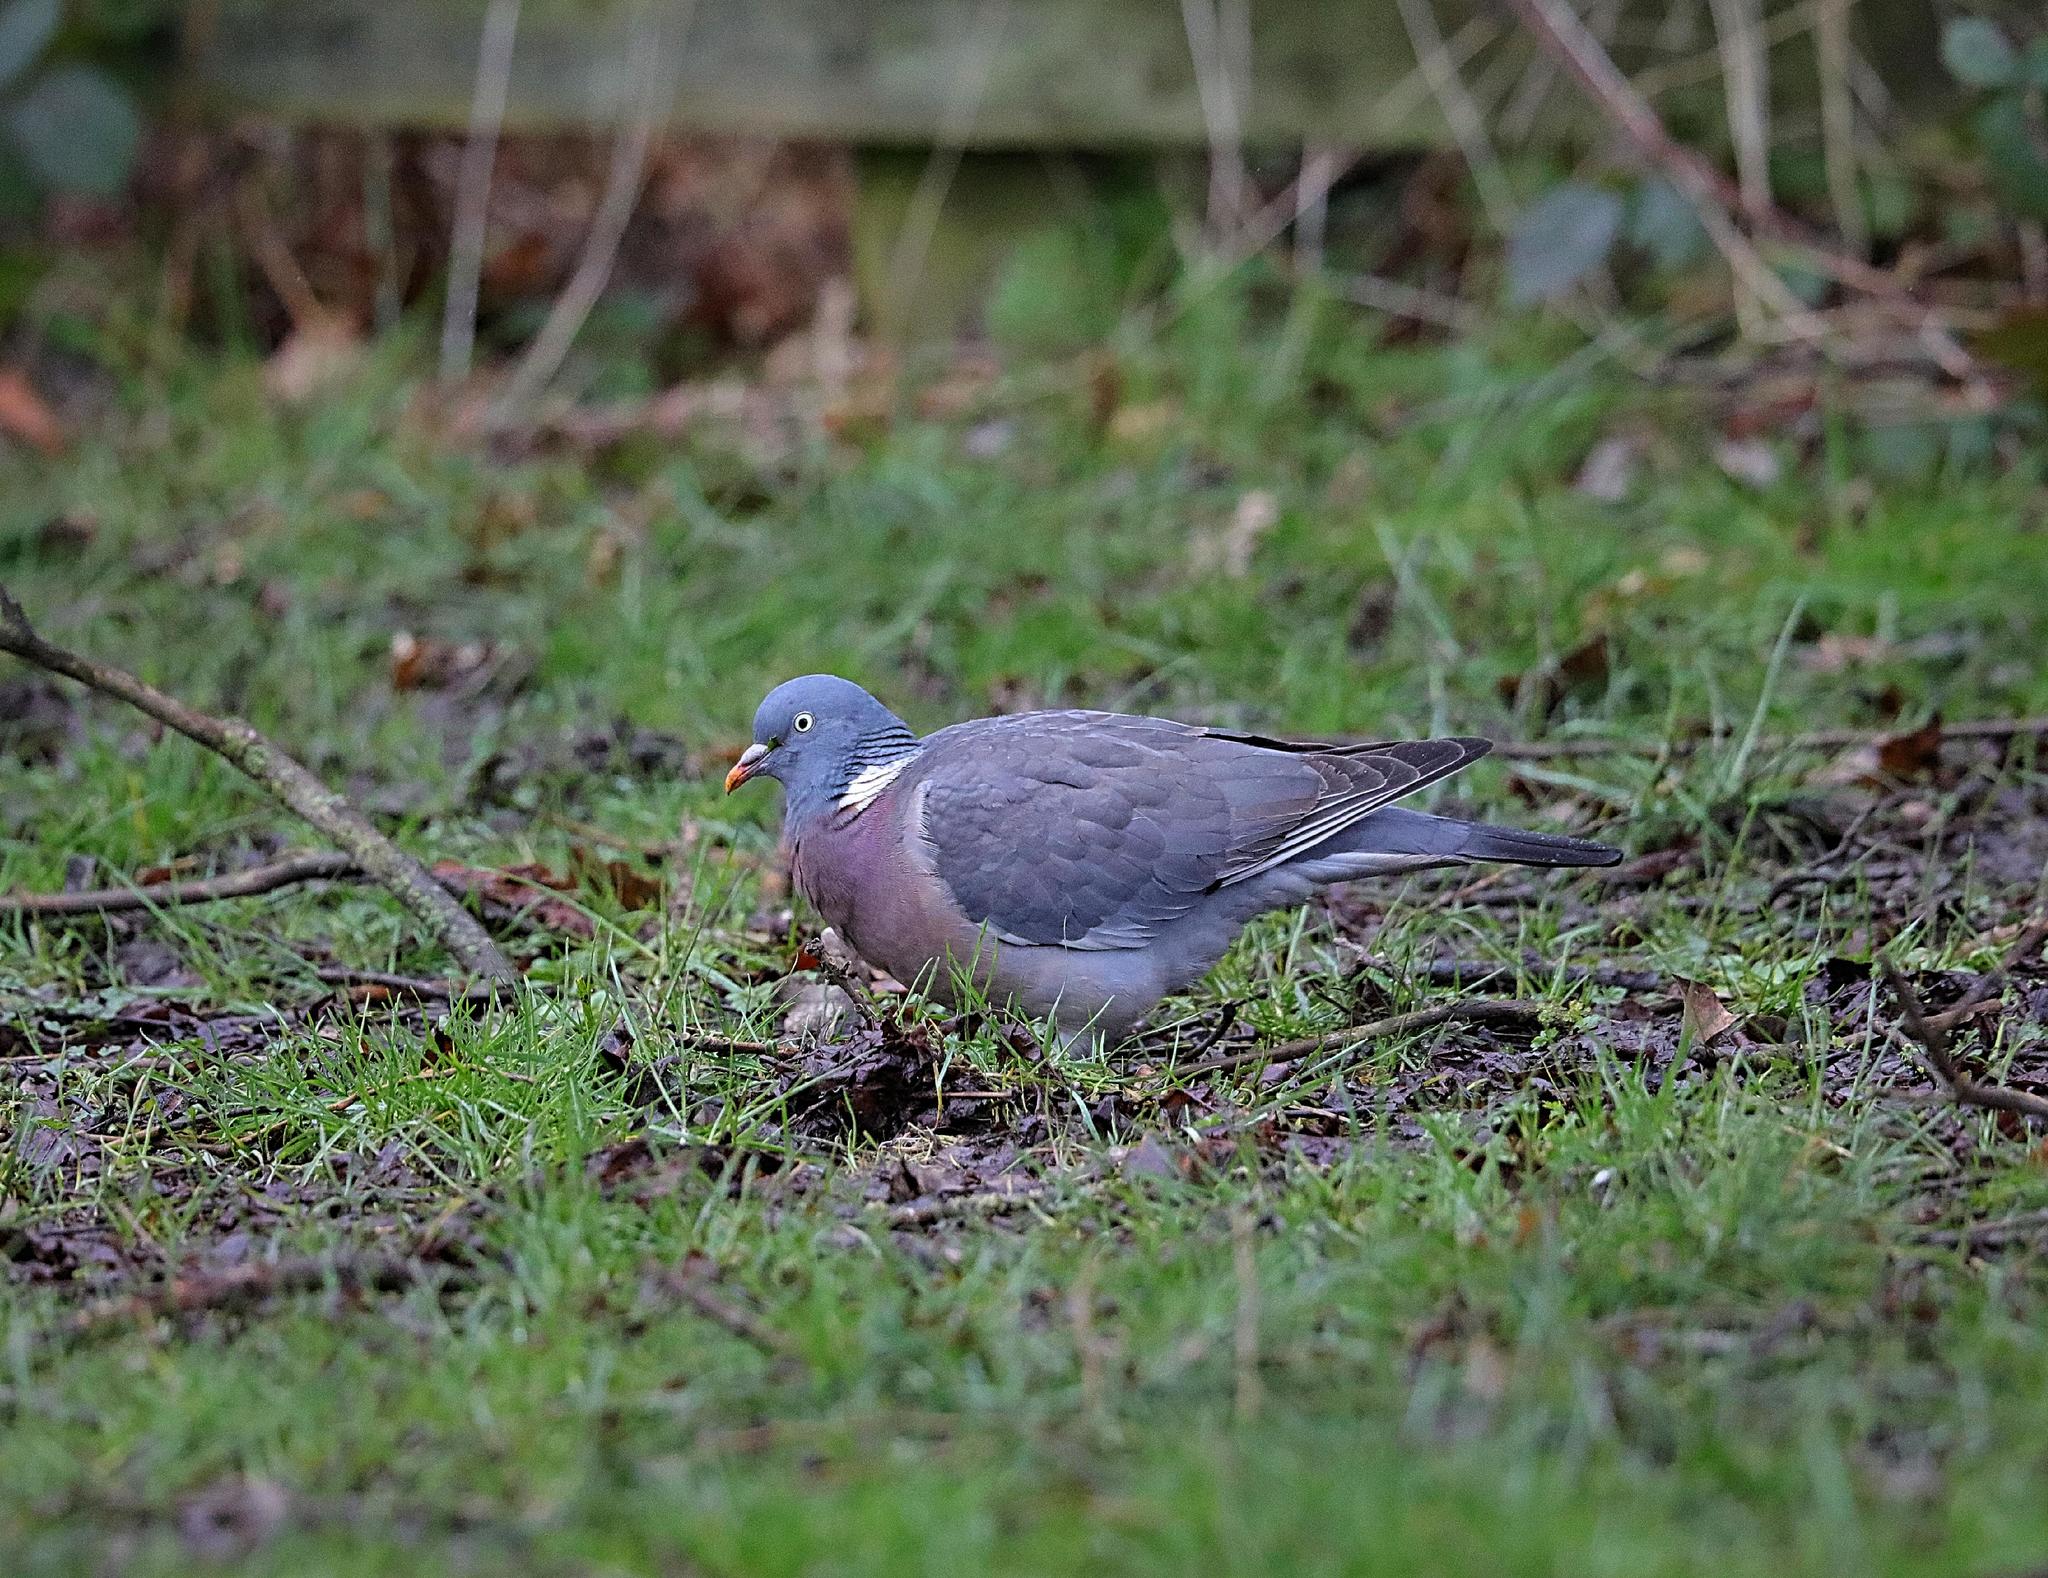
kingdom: Animalia
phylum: Chordata
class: Aves
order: Columbiformes
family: Columbidae
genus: Columba
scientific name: Columba palumbus
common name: Common wood pigeon
